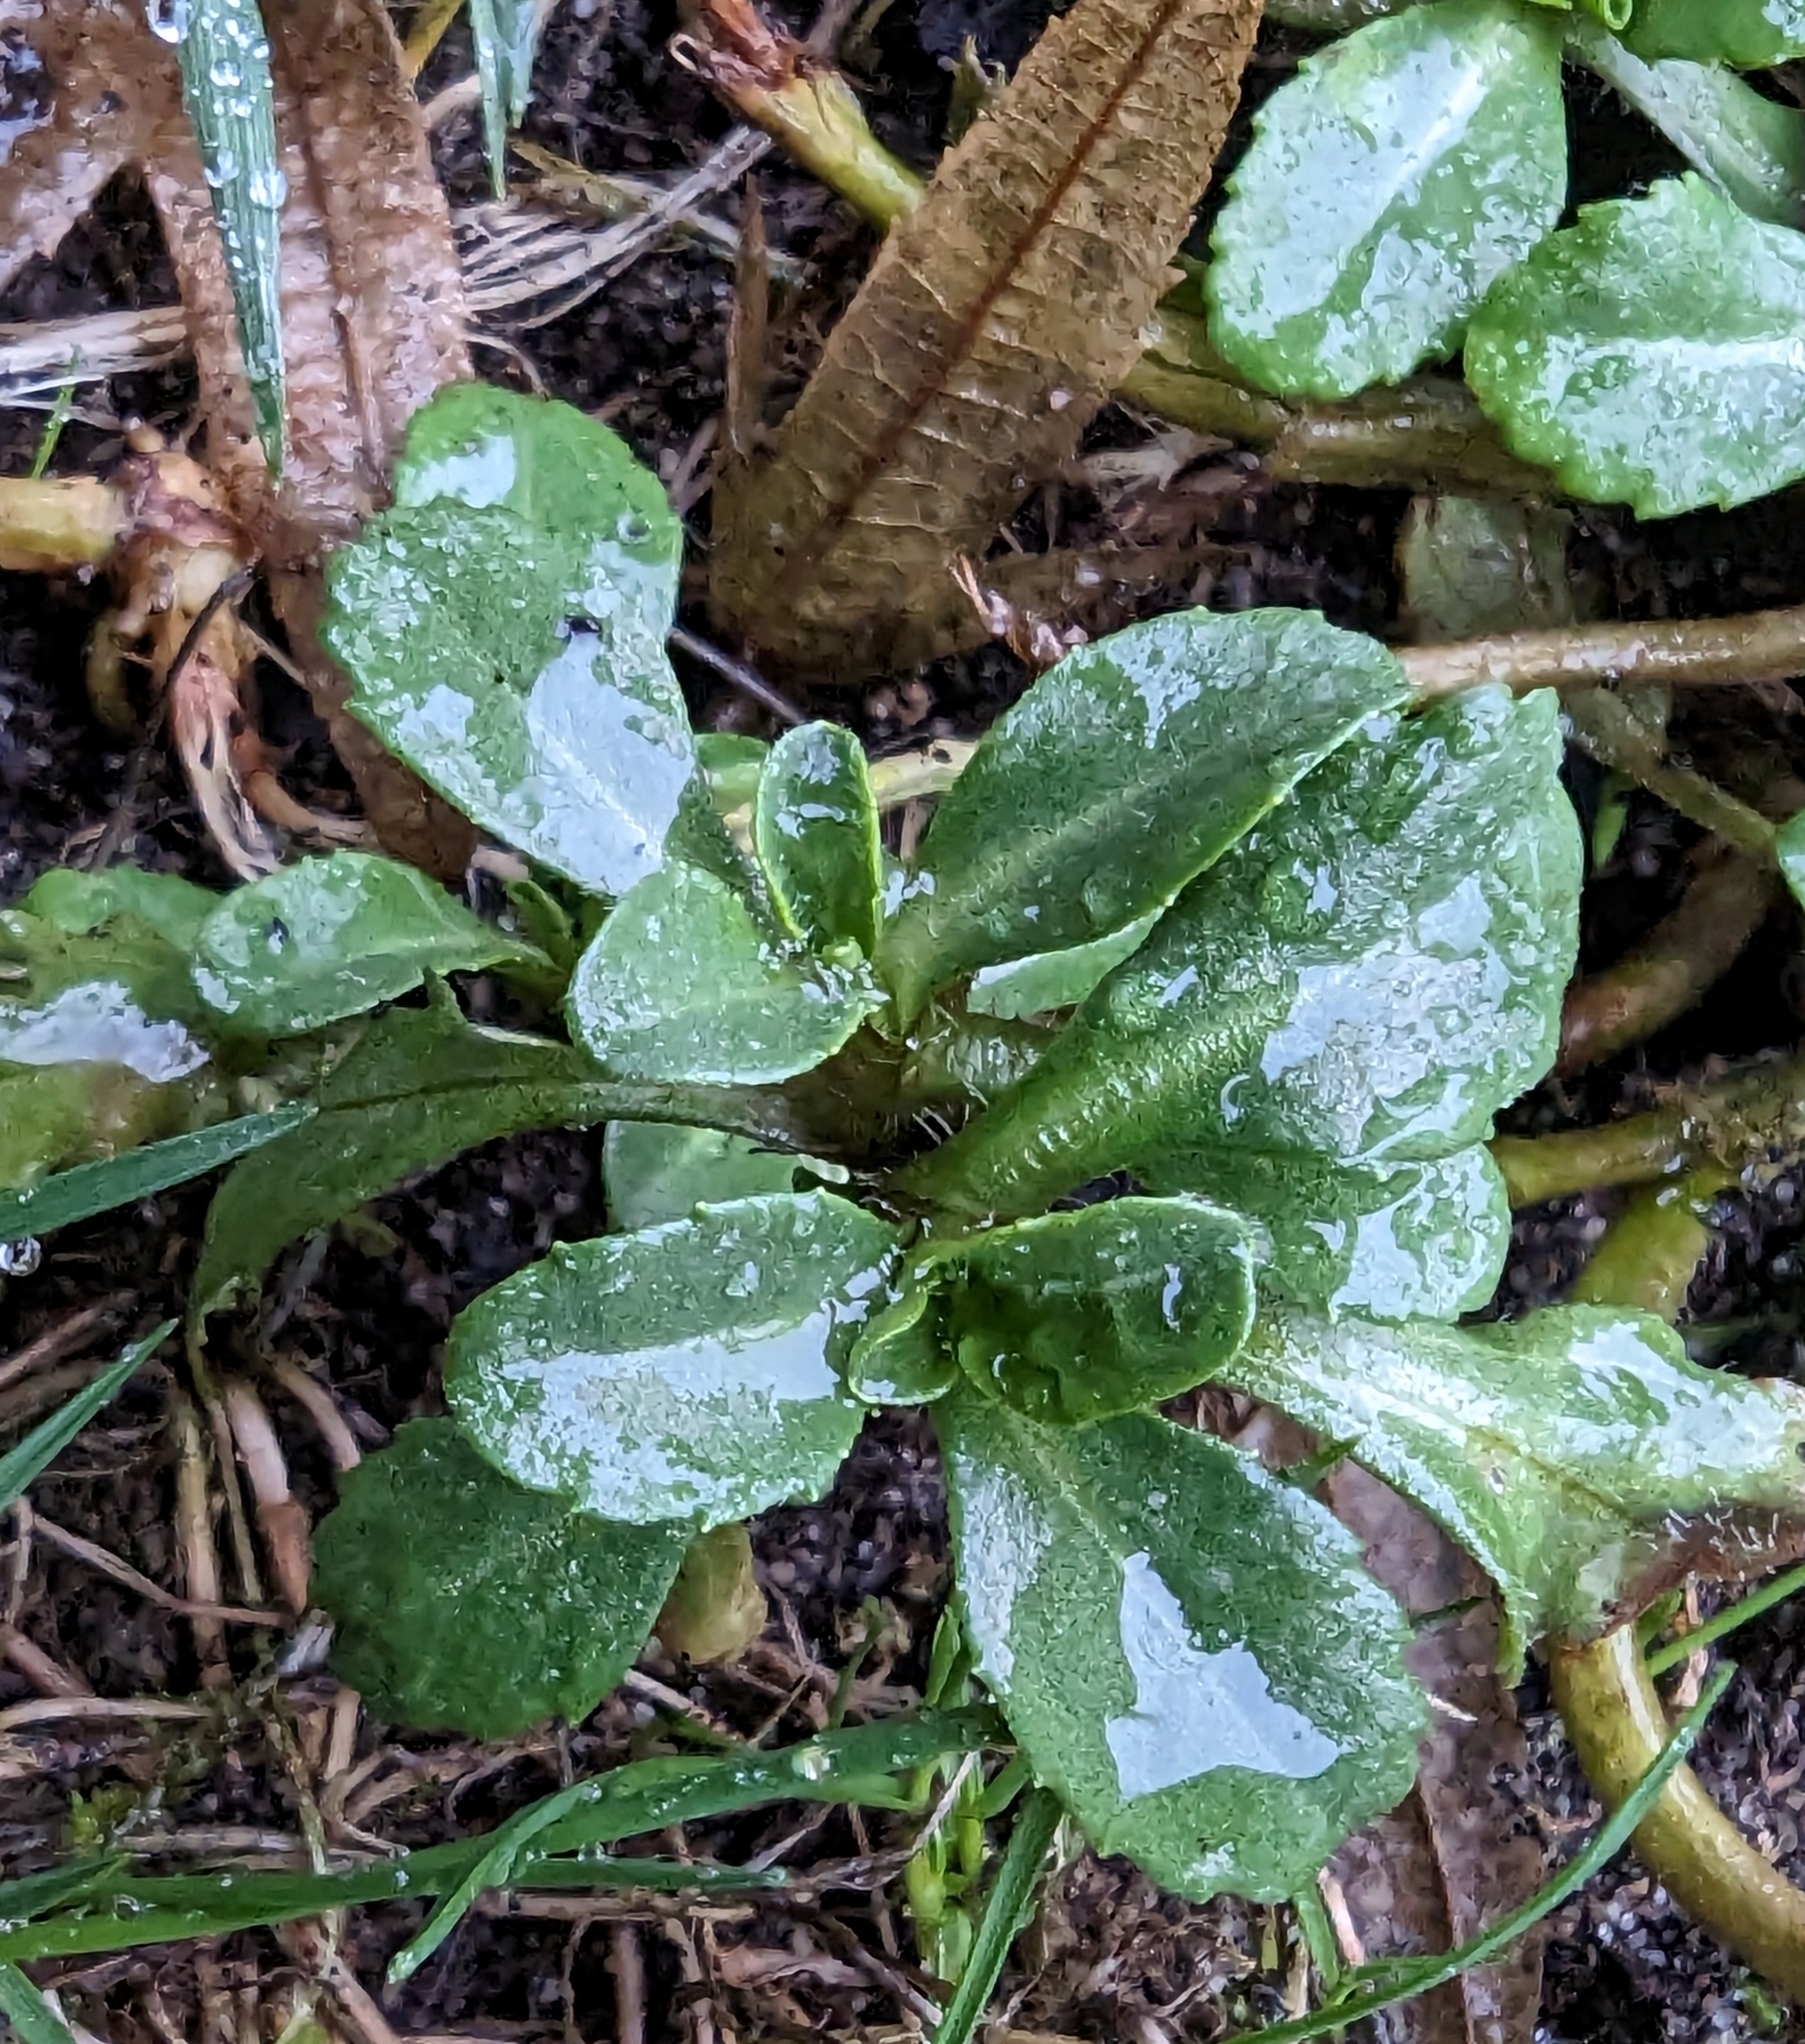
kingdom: Plantae
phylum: Tracheophyta
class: Magnoliopsida
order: Asterales
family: Asteraceae
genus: Bellis
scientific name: Bellis perennis
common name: Lawndaisy
